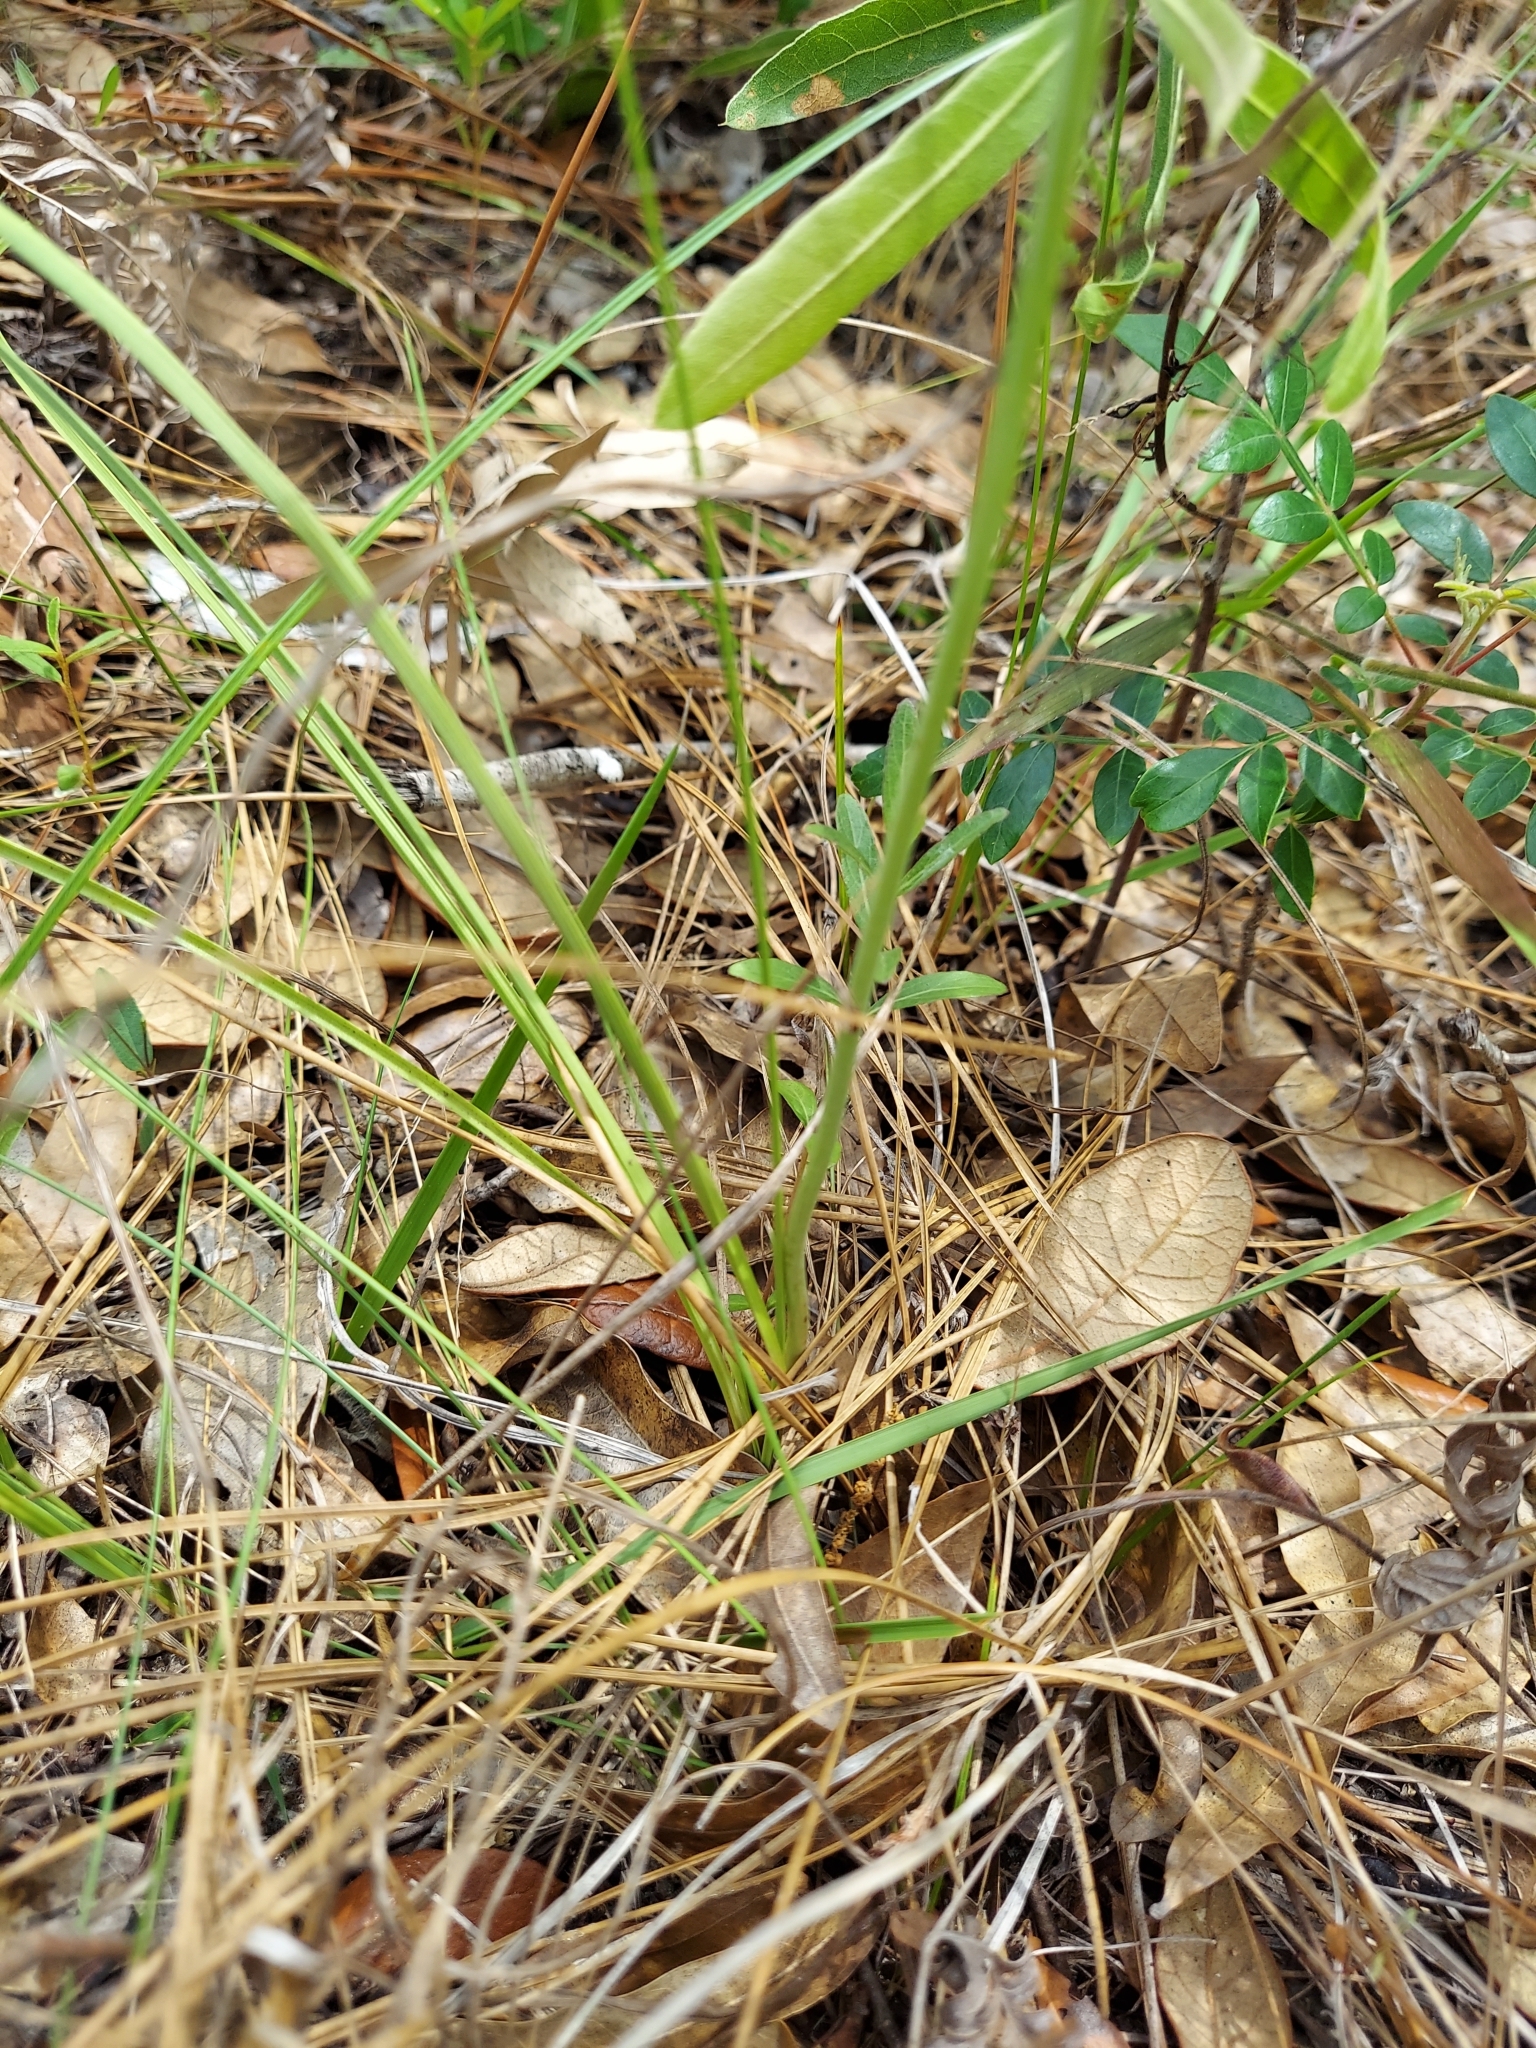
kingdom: Plantae
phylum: Tracheophyta
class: Liliopsida
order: Liliales
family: Melanthiaceae
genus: Schoenocaulon
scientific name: Schoenocaulon dubium
